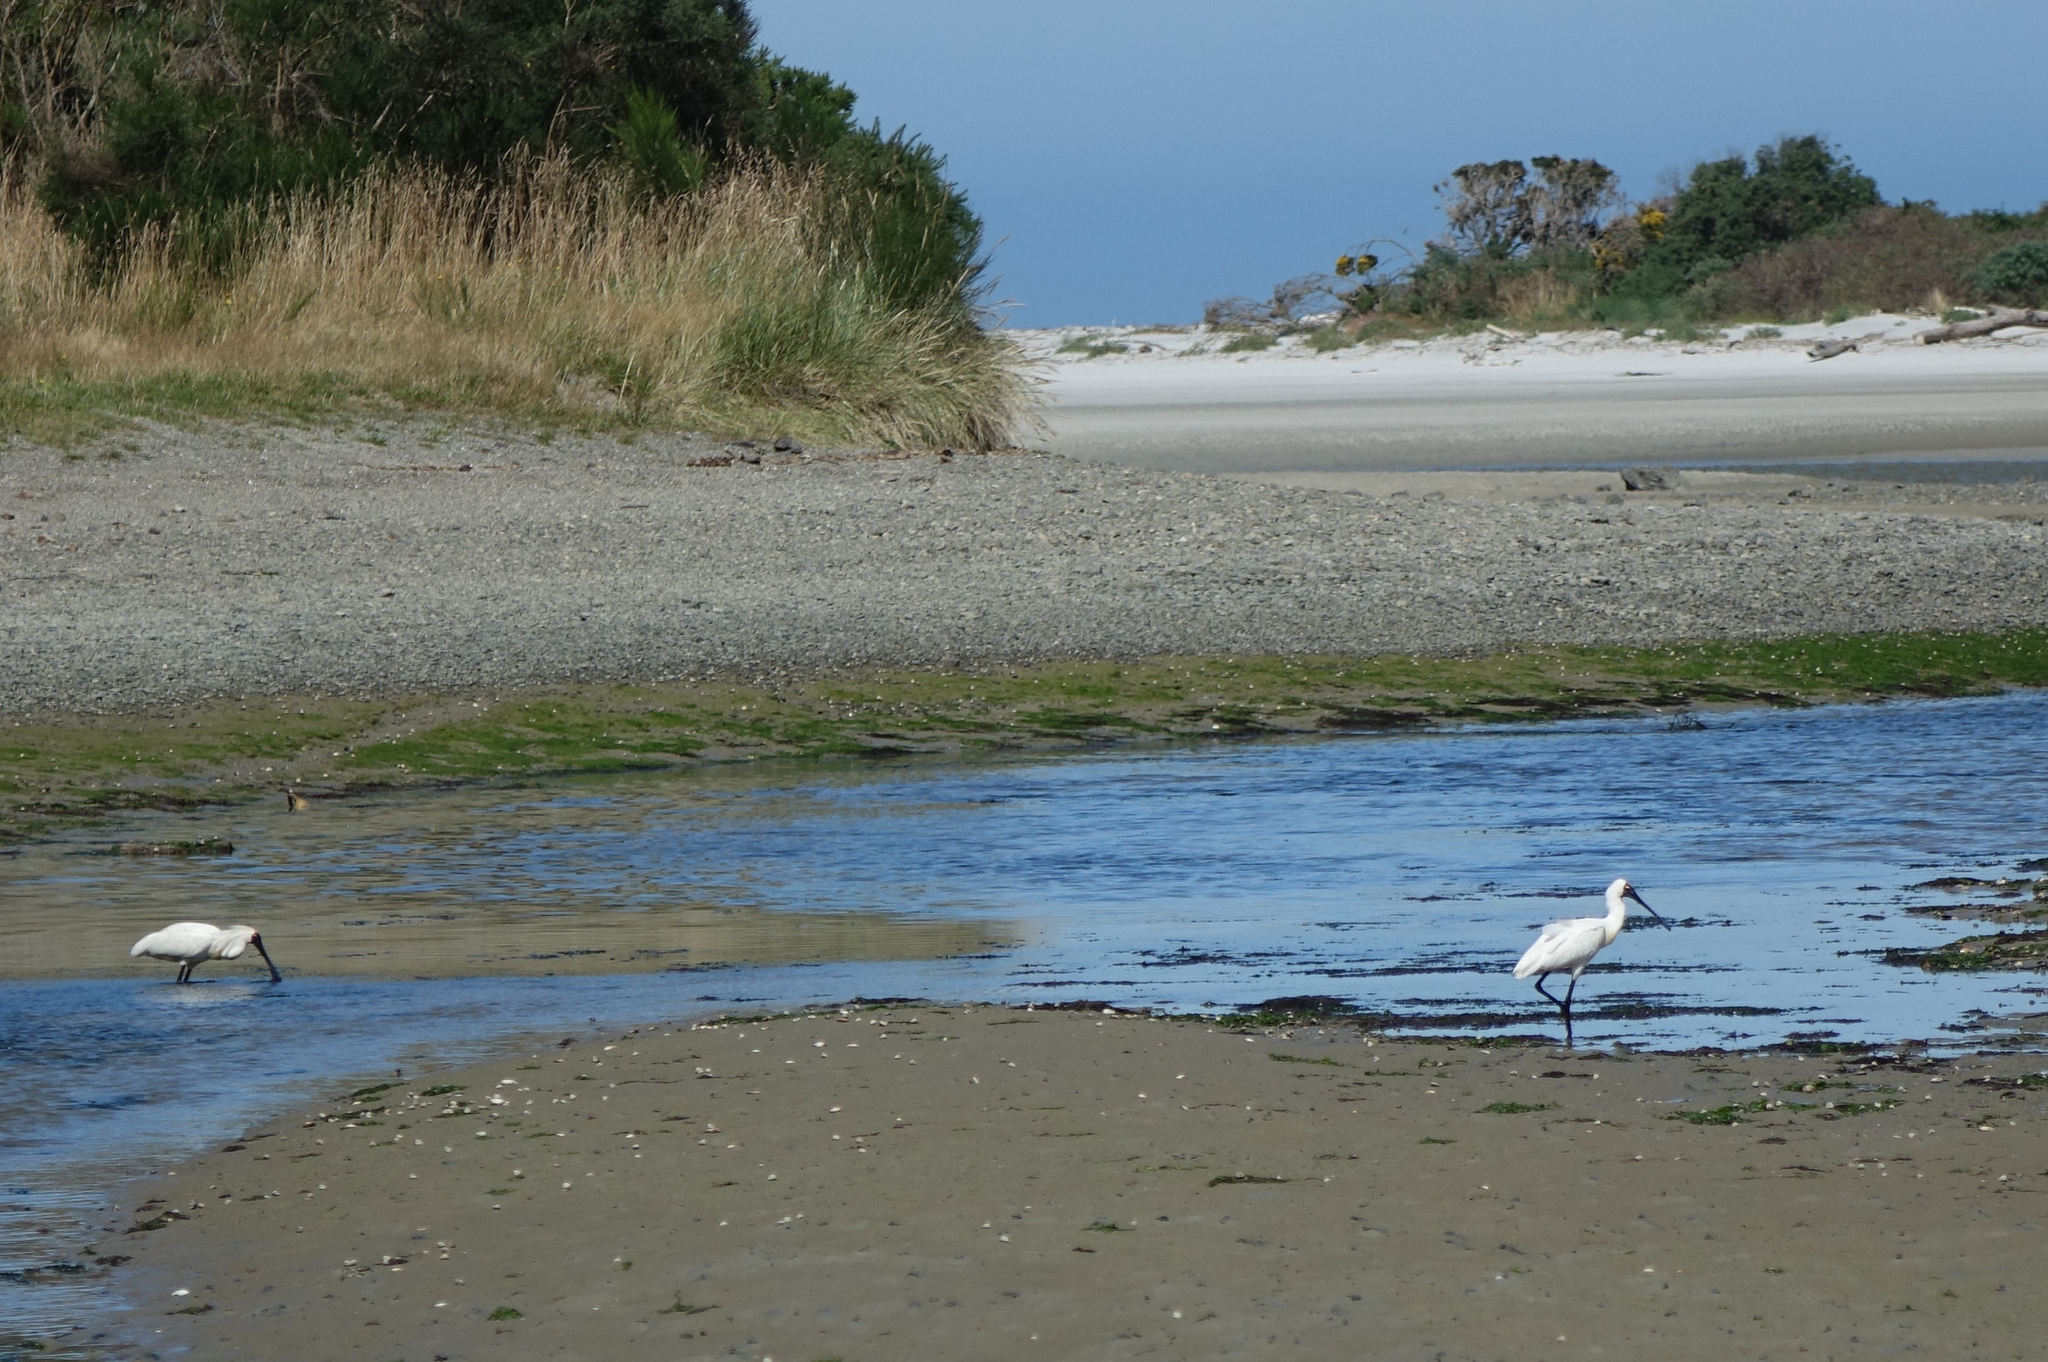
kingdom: Animalia
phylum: Chordata
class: Aves
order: Pelecaniformes
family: Threskiornithidae
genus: Platalea
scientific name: Platalea regia
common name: Royal spoonbill
